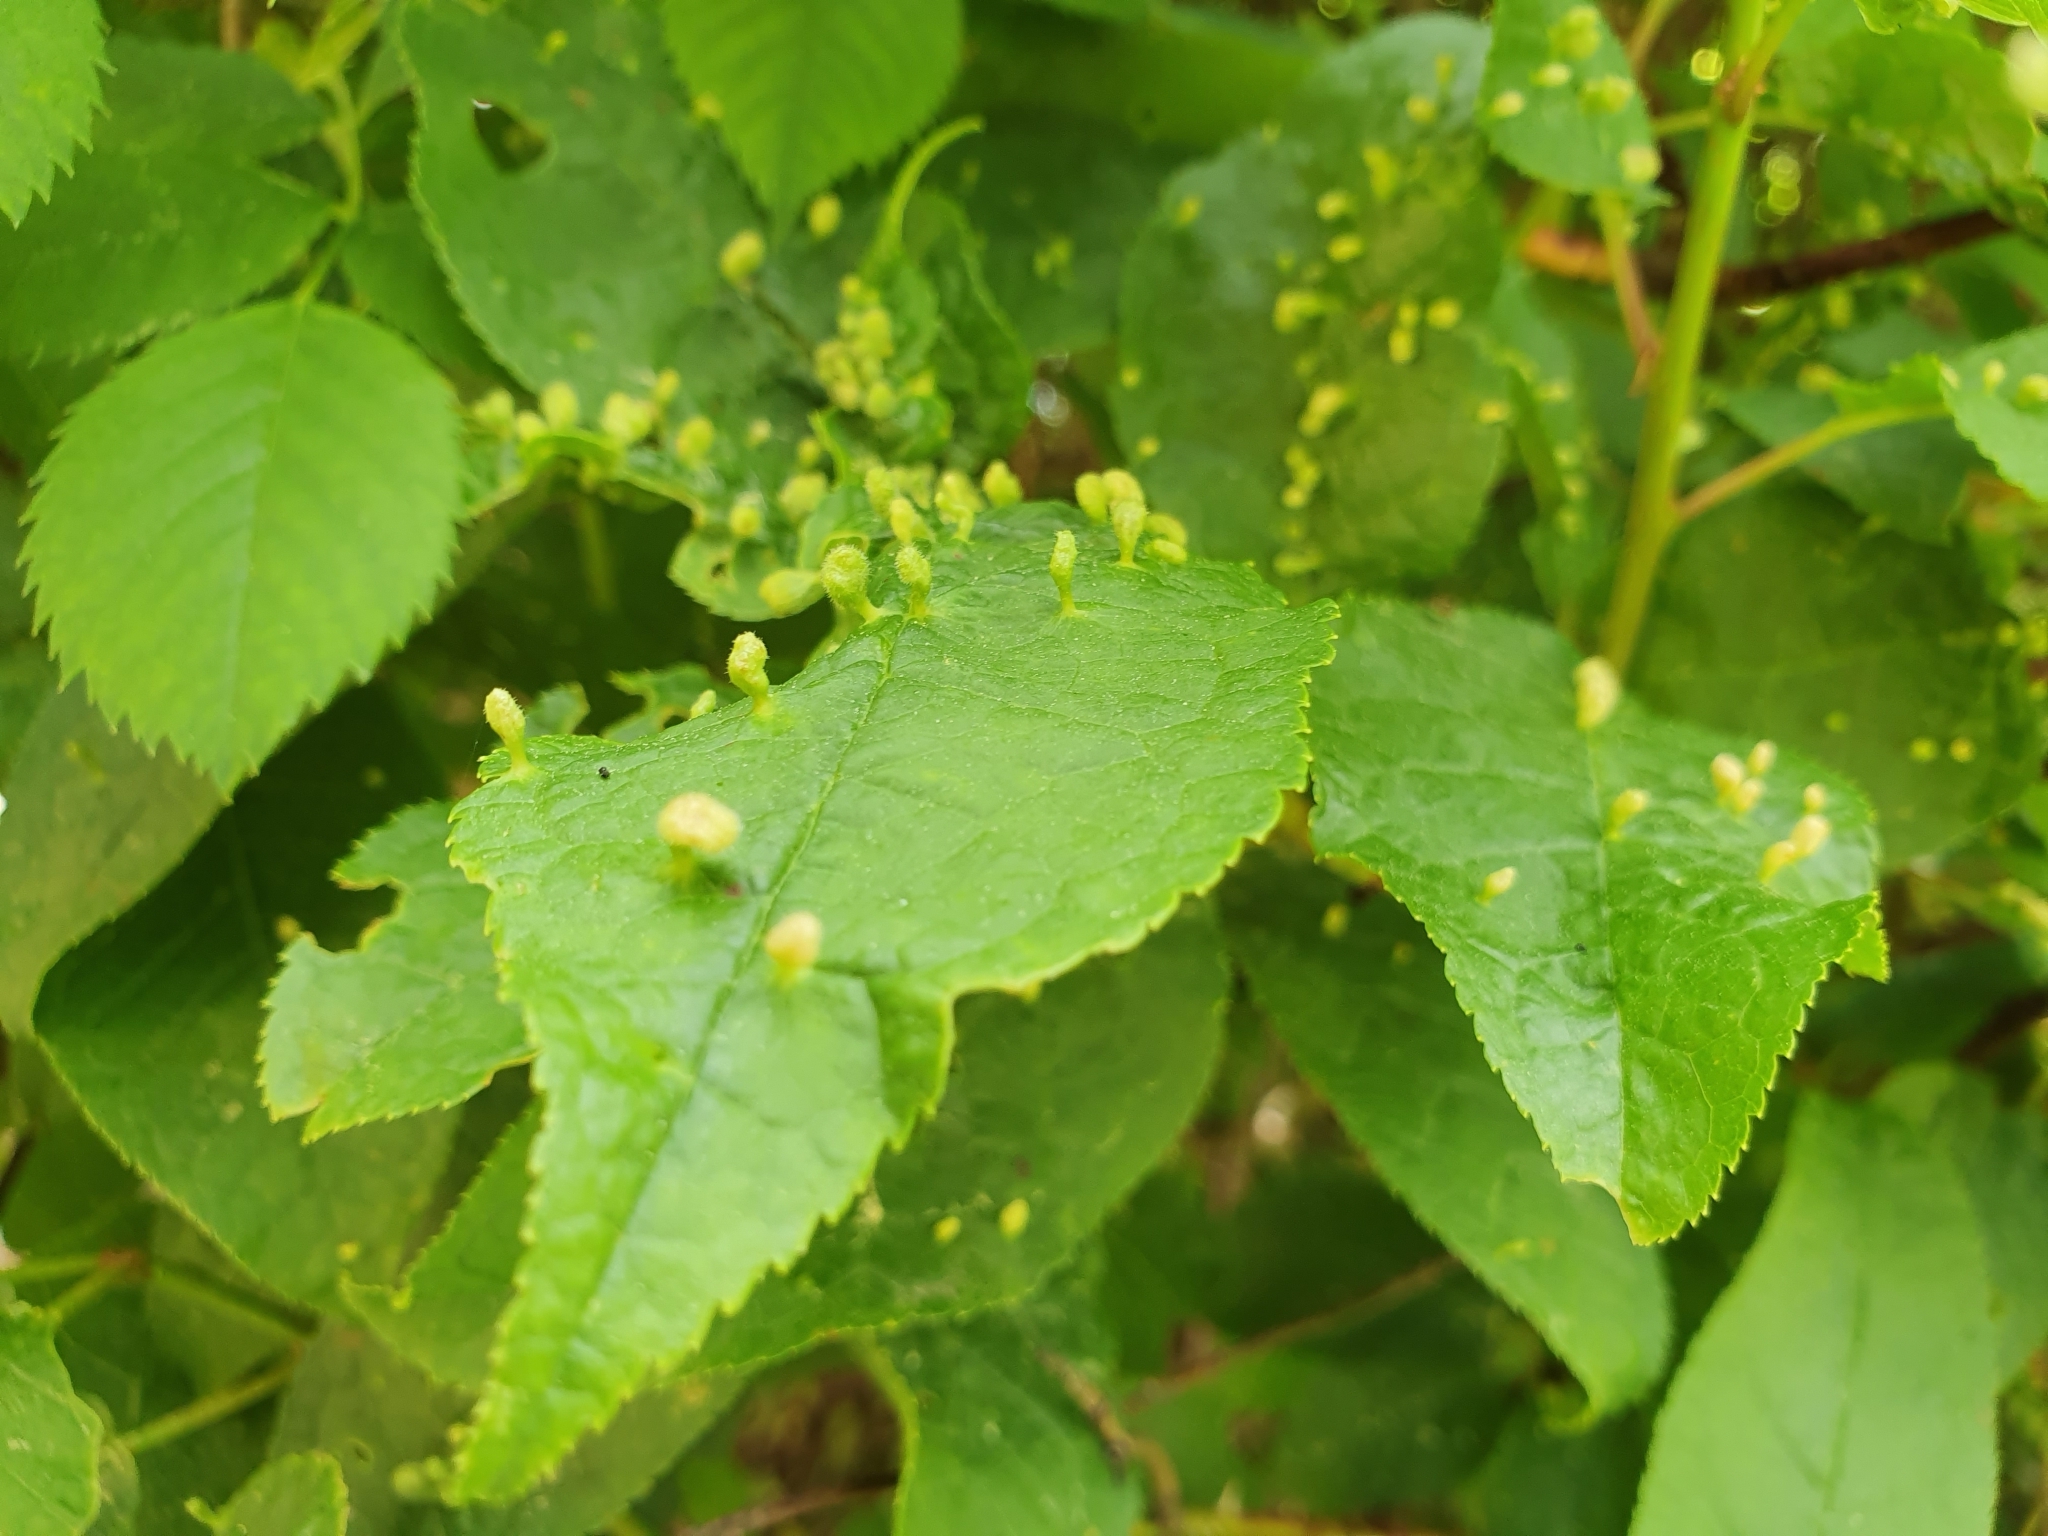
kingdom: Animalia
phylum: Arthropoda
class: Arachnida
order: Trombidiformes
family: Eriophyidae
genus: Phyllocoptes
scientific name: Phyllocoptes eupadi
